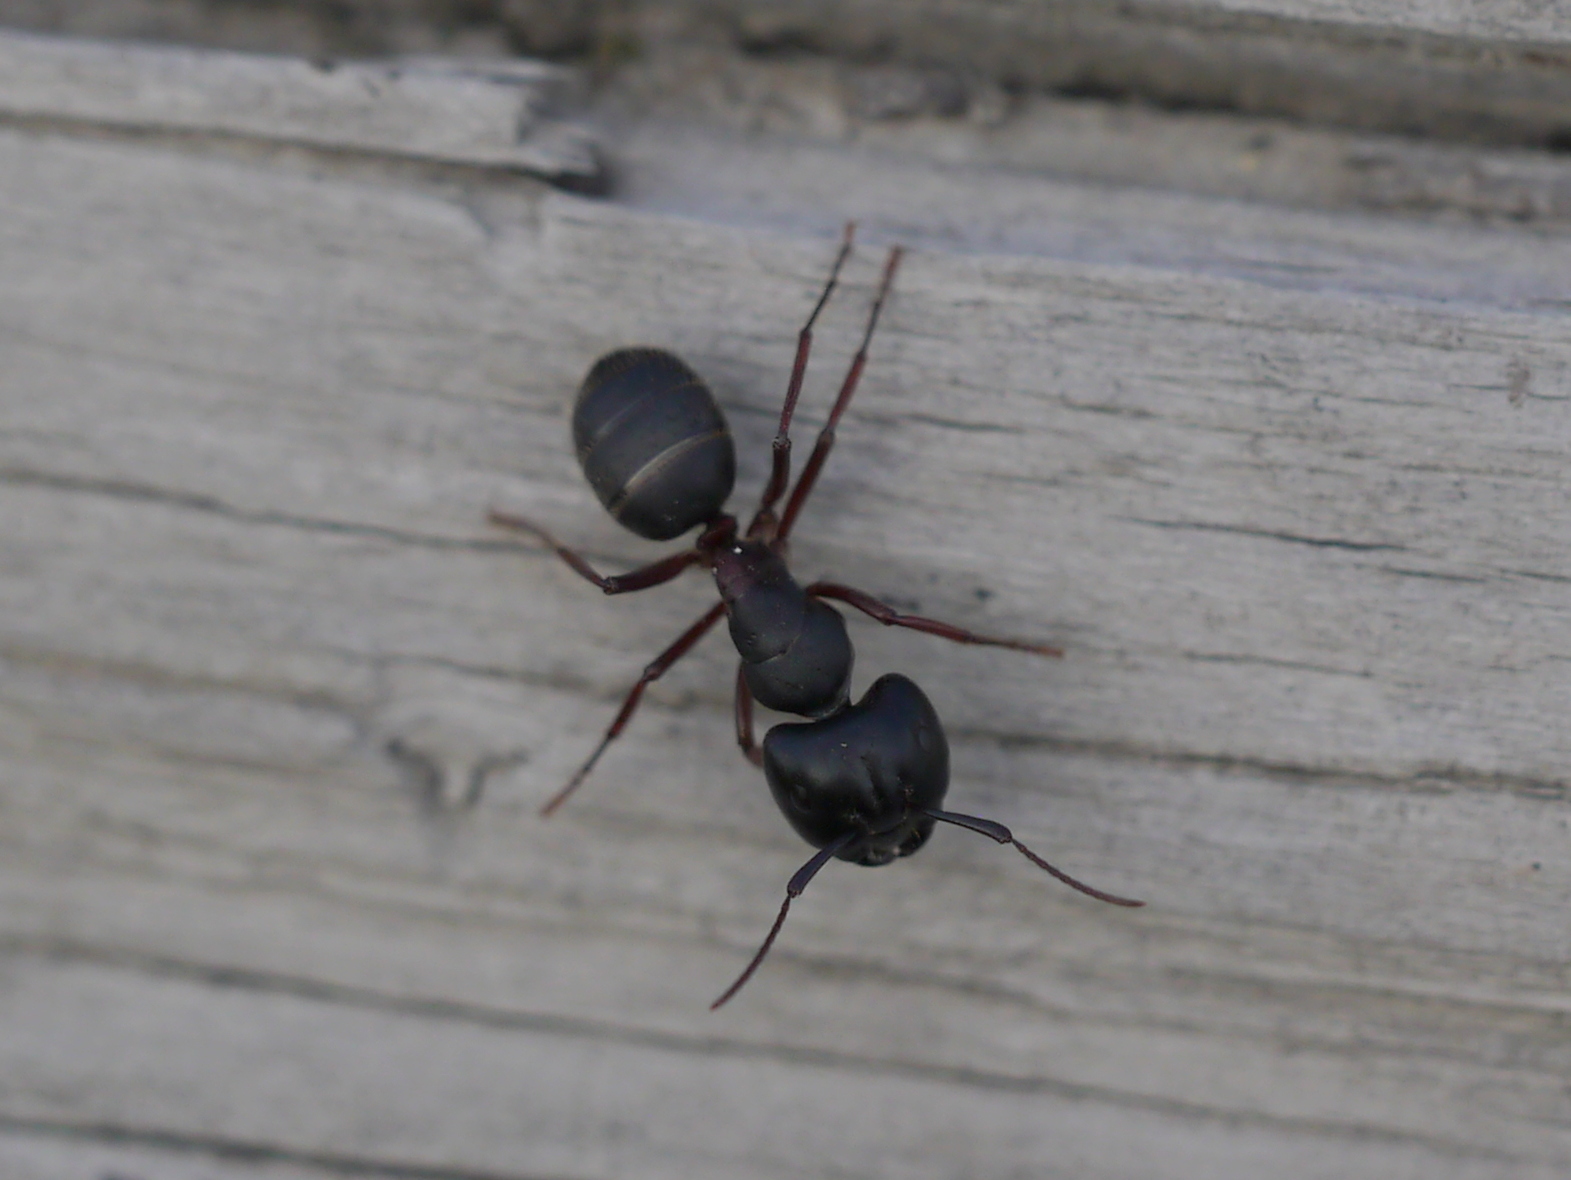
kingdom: Animalia
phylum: Arthropoda
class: Insecta
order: Hymenoptera
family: Formicidae
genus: Camponotus
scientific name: Camponotus herculeanus
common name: Hercules ant
